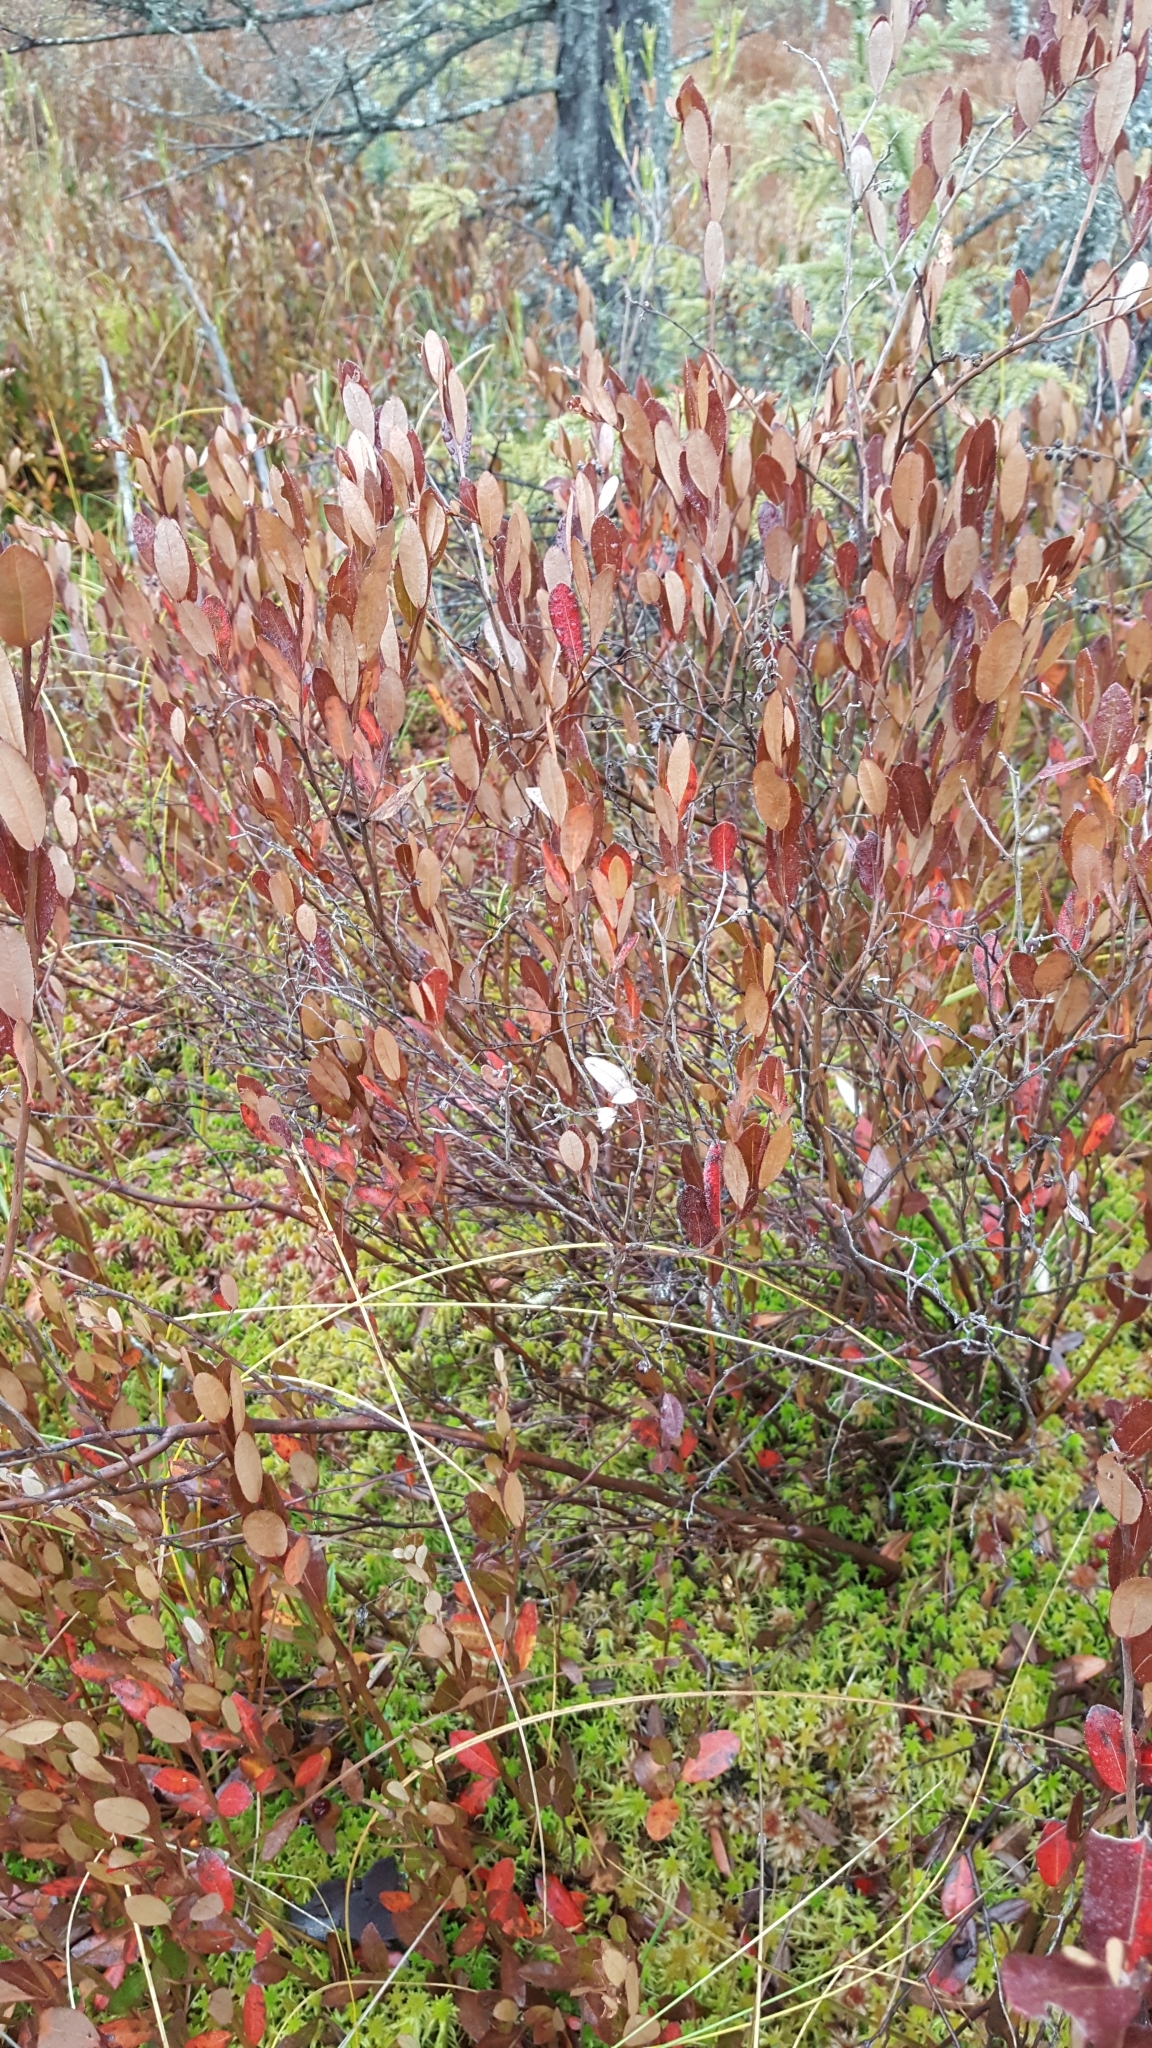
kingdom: Plantae
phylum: Tracheophyta
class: Magnoliopsida
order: Ericales
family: Ericaceae
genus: Chamaedaphne
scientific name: Chamaedaphne calyculata
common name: Leatherleaf
